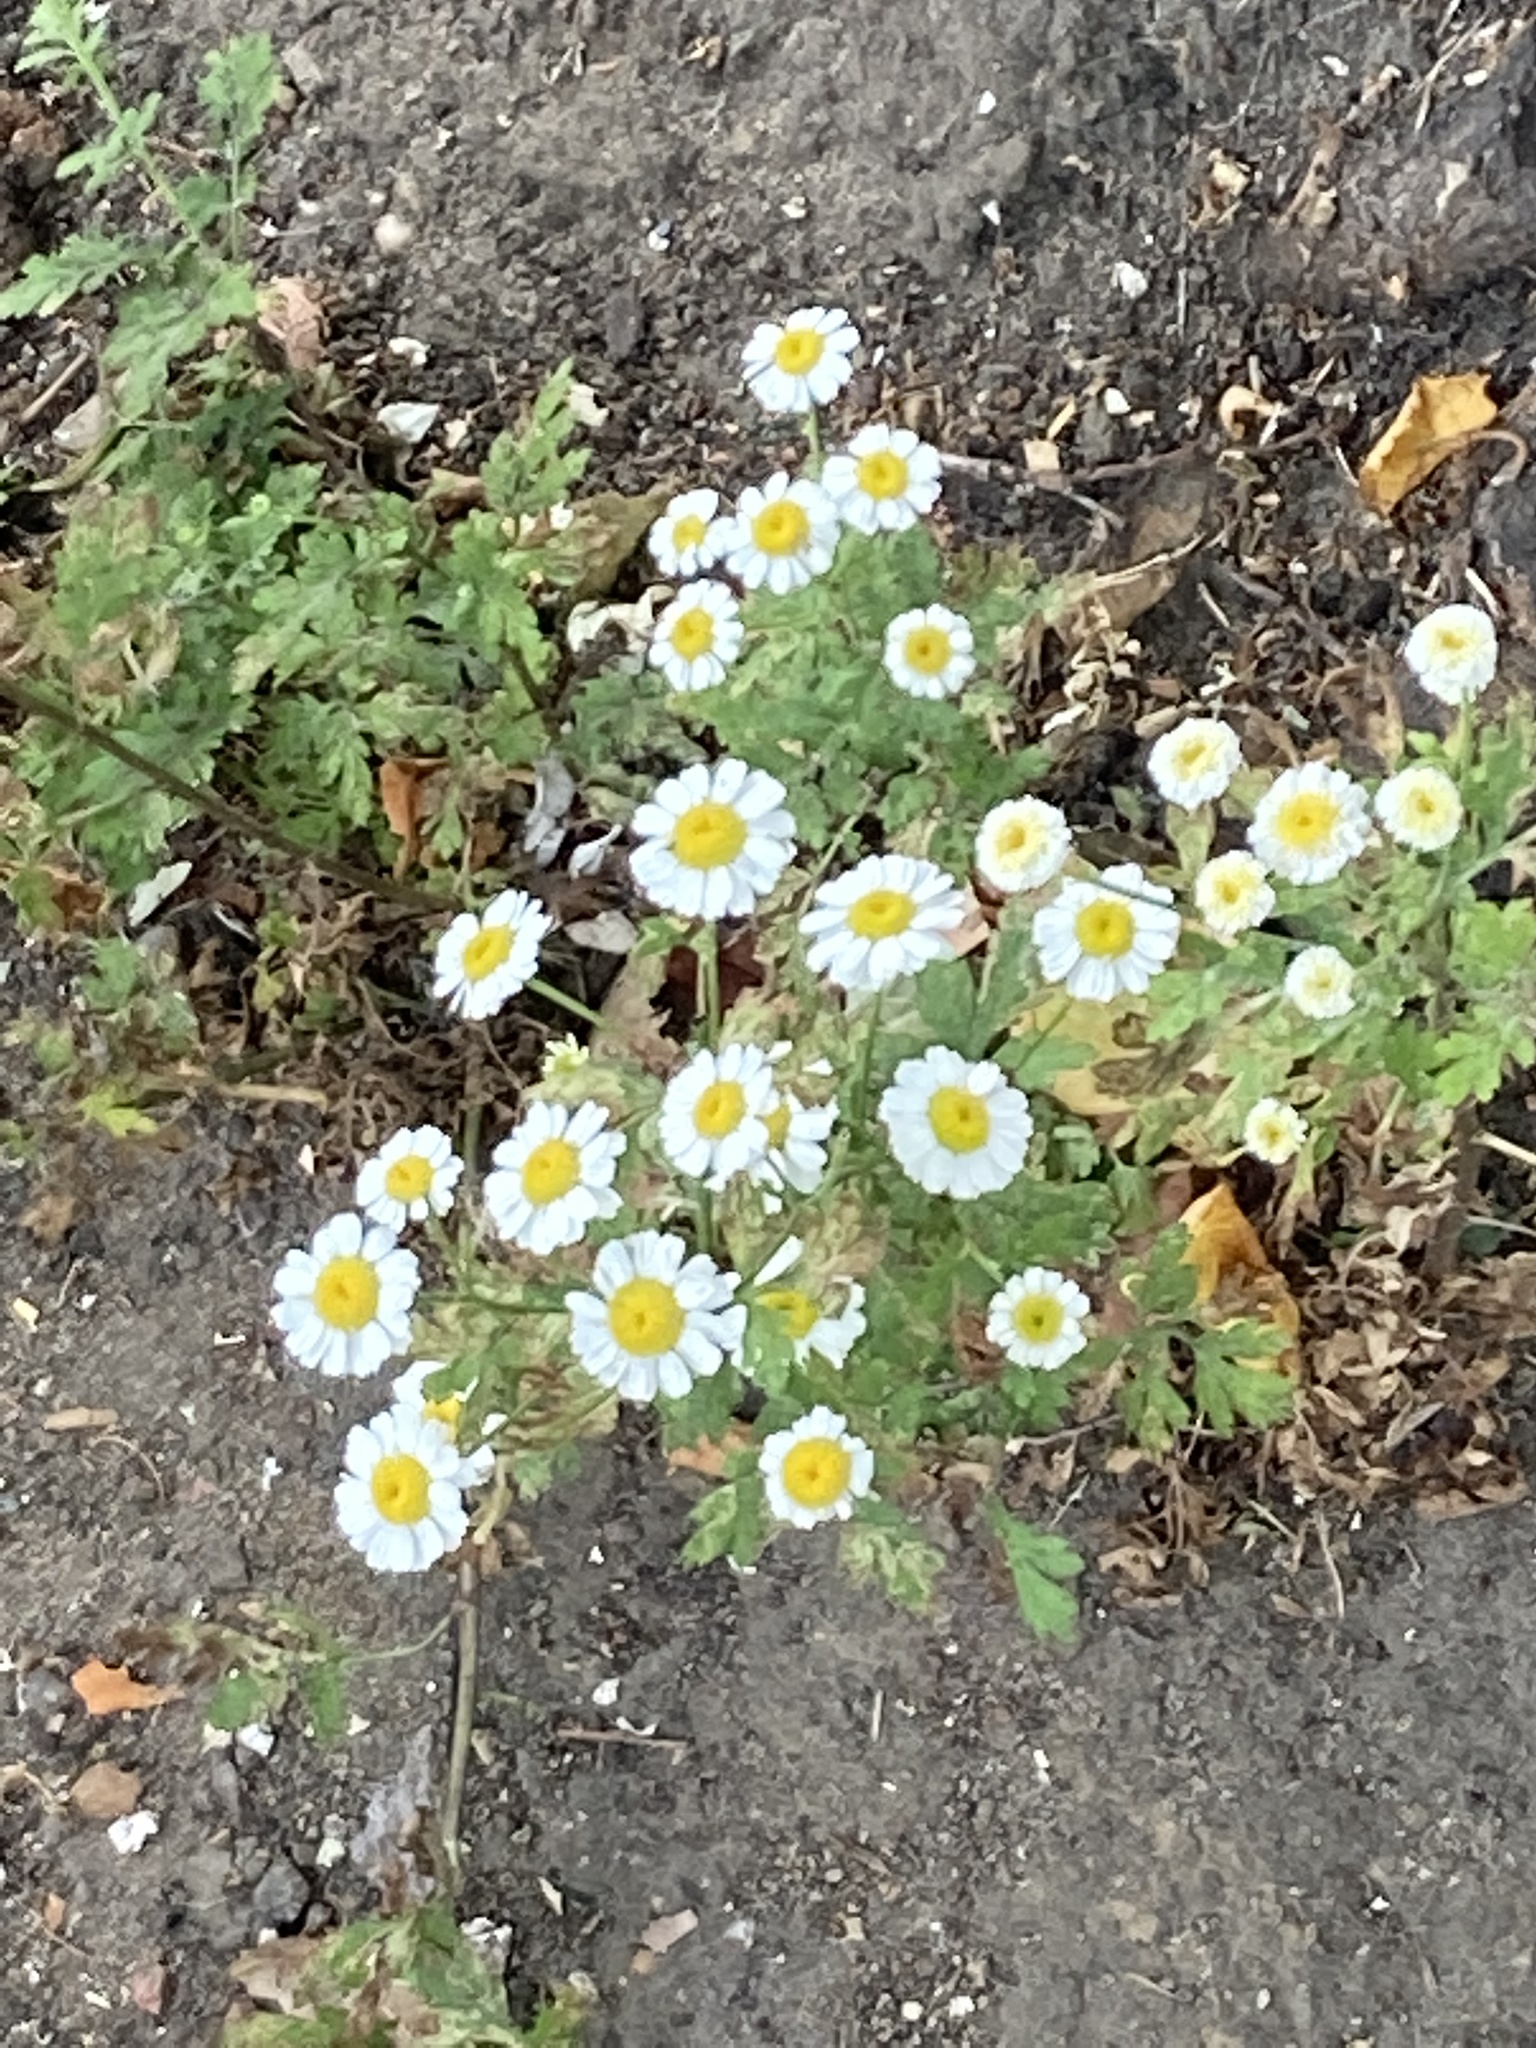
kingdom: Plantae
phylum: Tracheophyta
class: Magnoliopsida
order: Asterales
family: Asteraceae
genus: Tanacetum
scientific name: Tanacetum parthenium
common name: Feverfew
